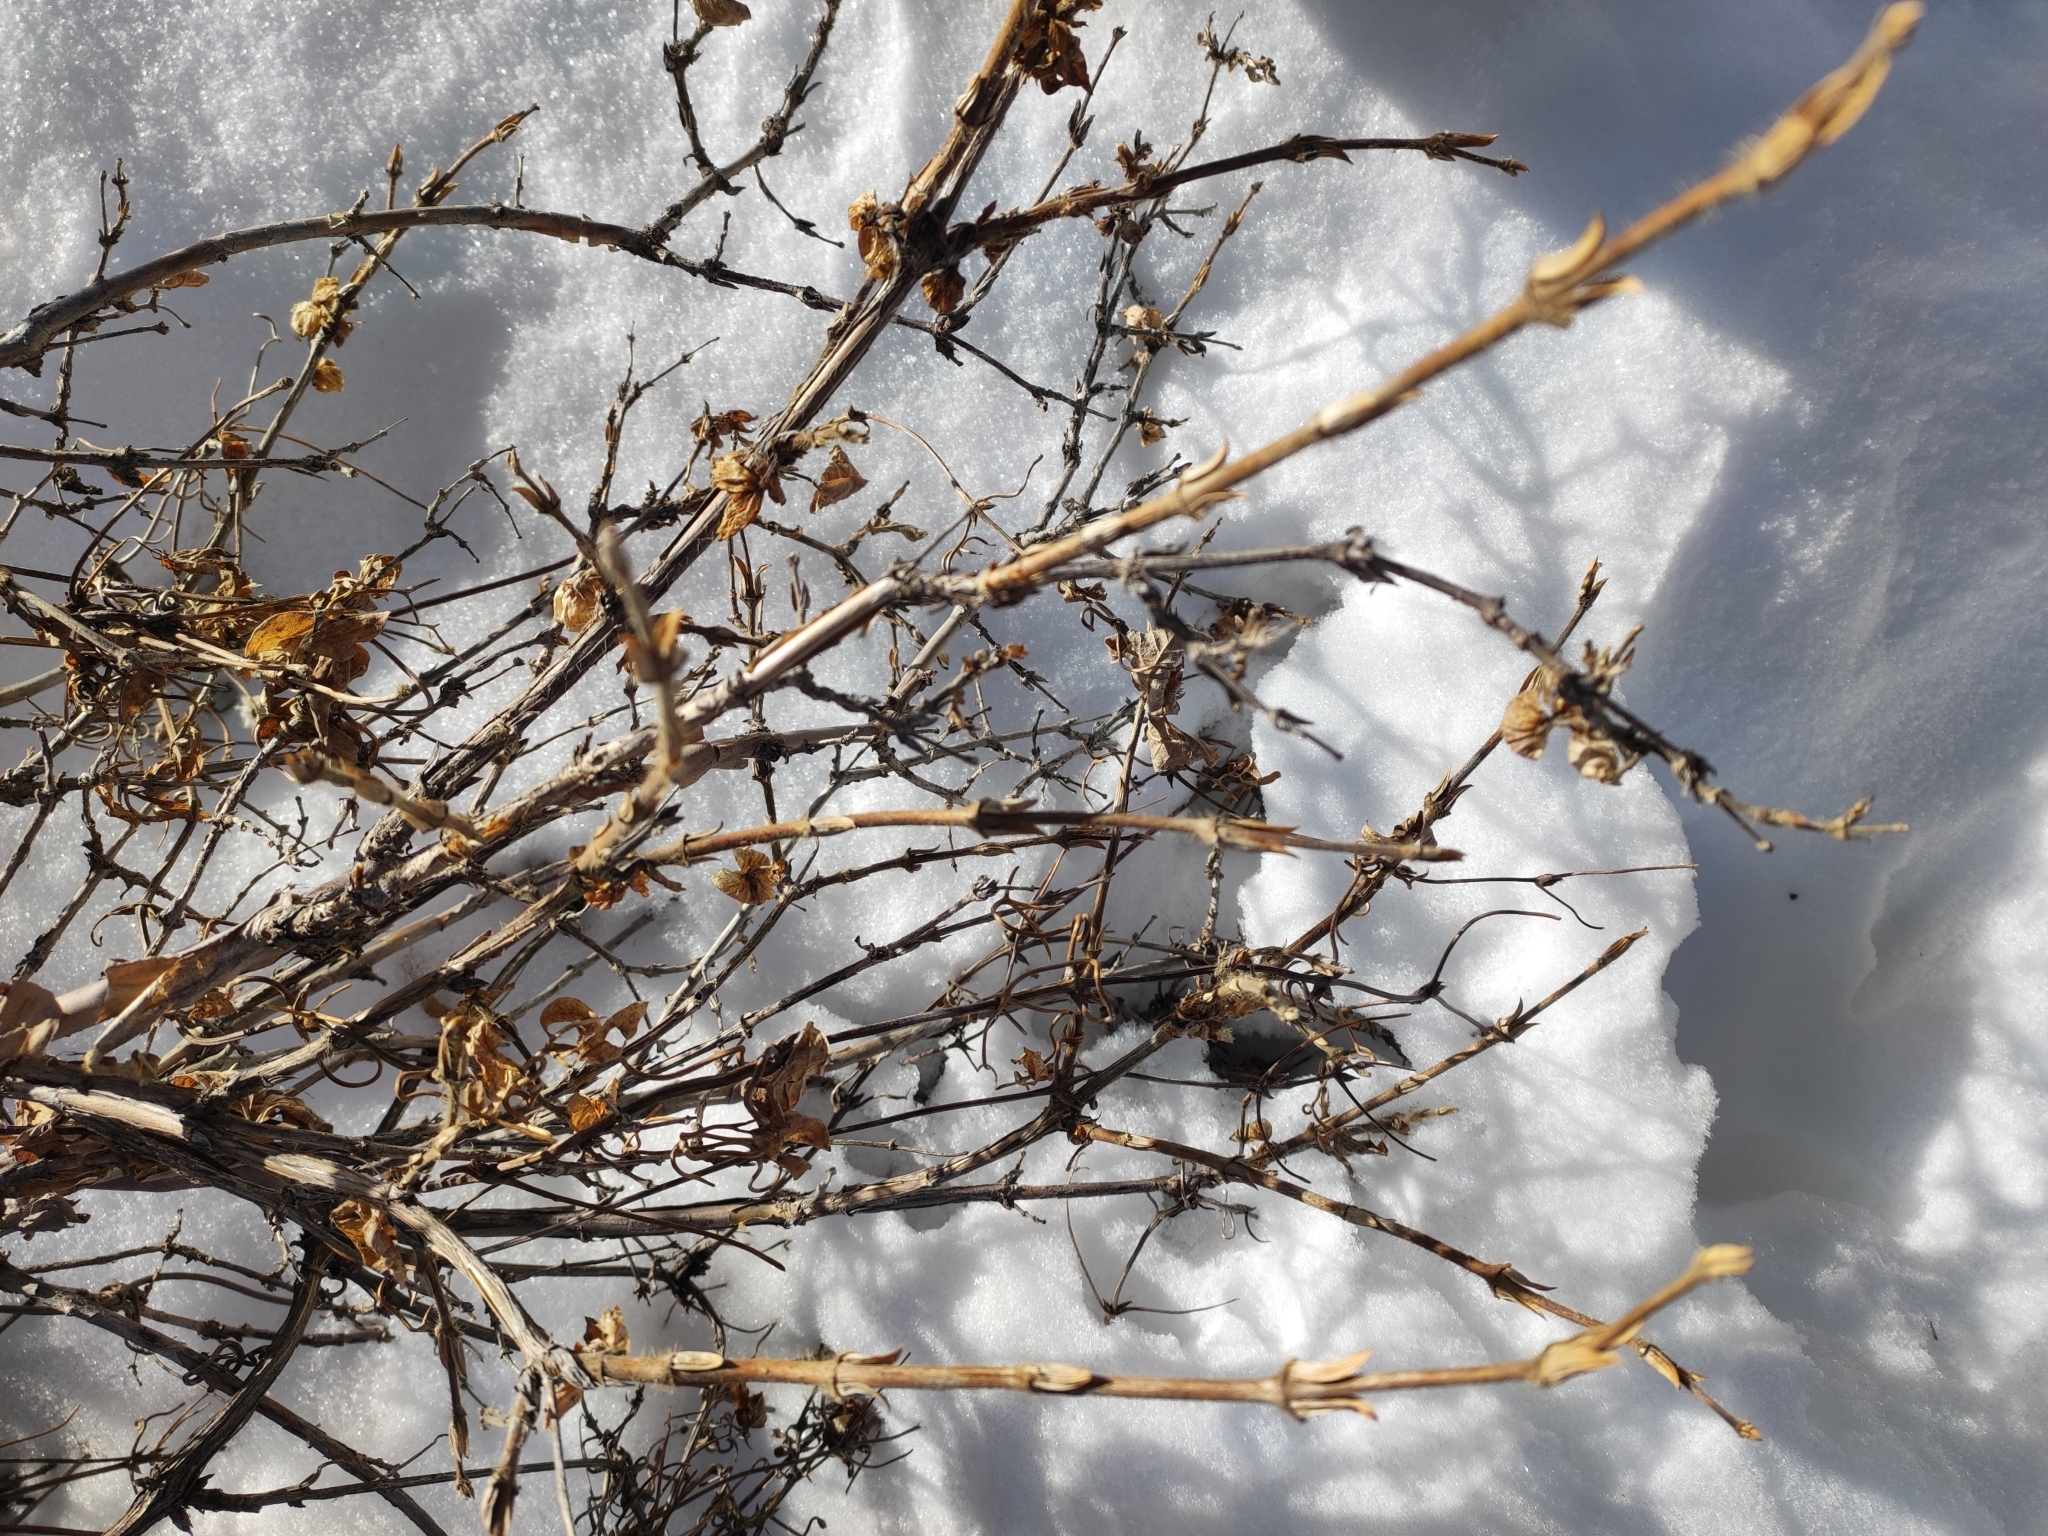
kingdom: Plantae
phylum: Tracheophyta
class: Magnoliopsida
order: Dipsacales
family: Caprifoliaceae
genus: Lonicera
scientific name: Lonicera hispida
